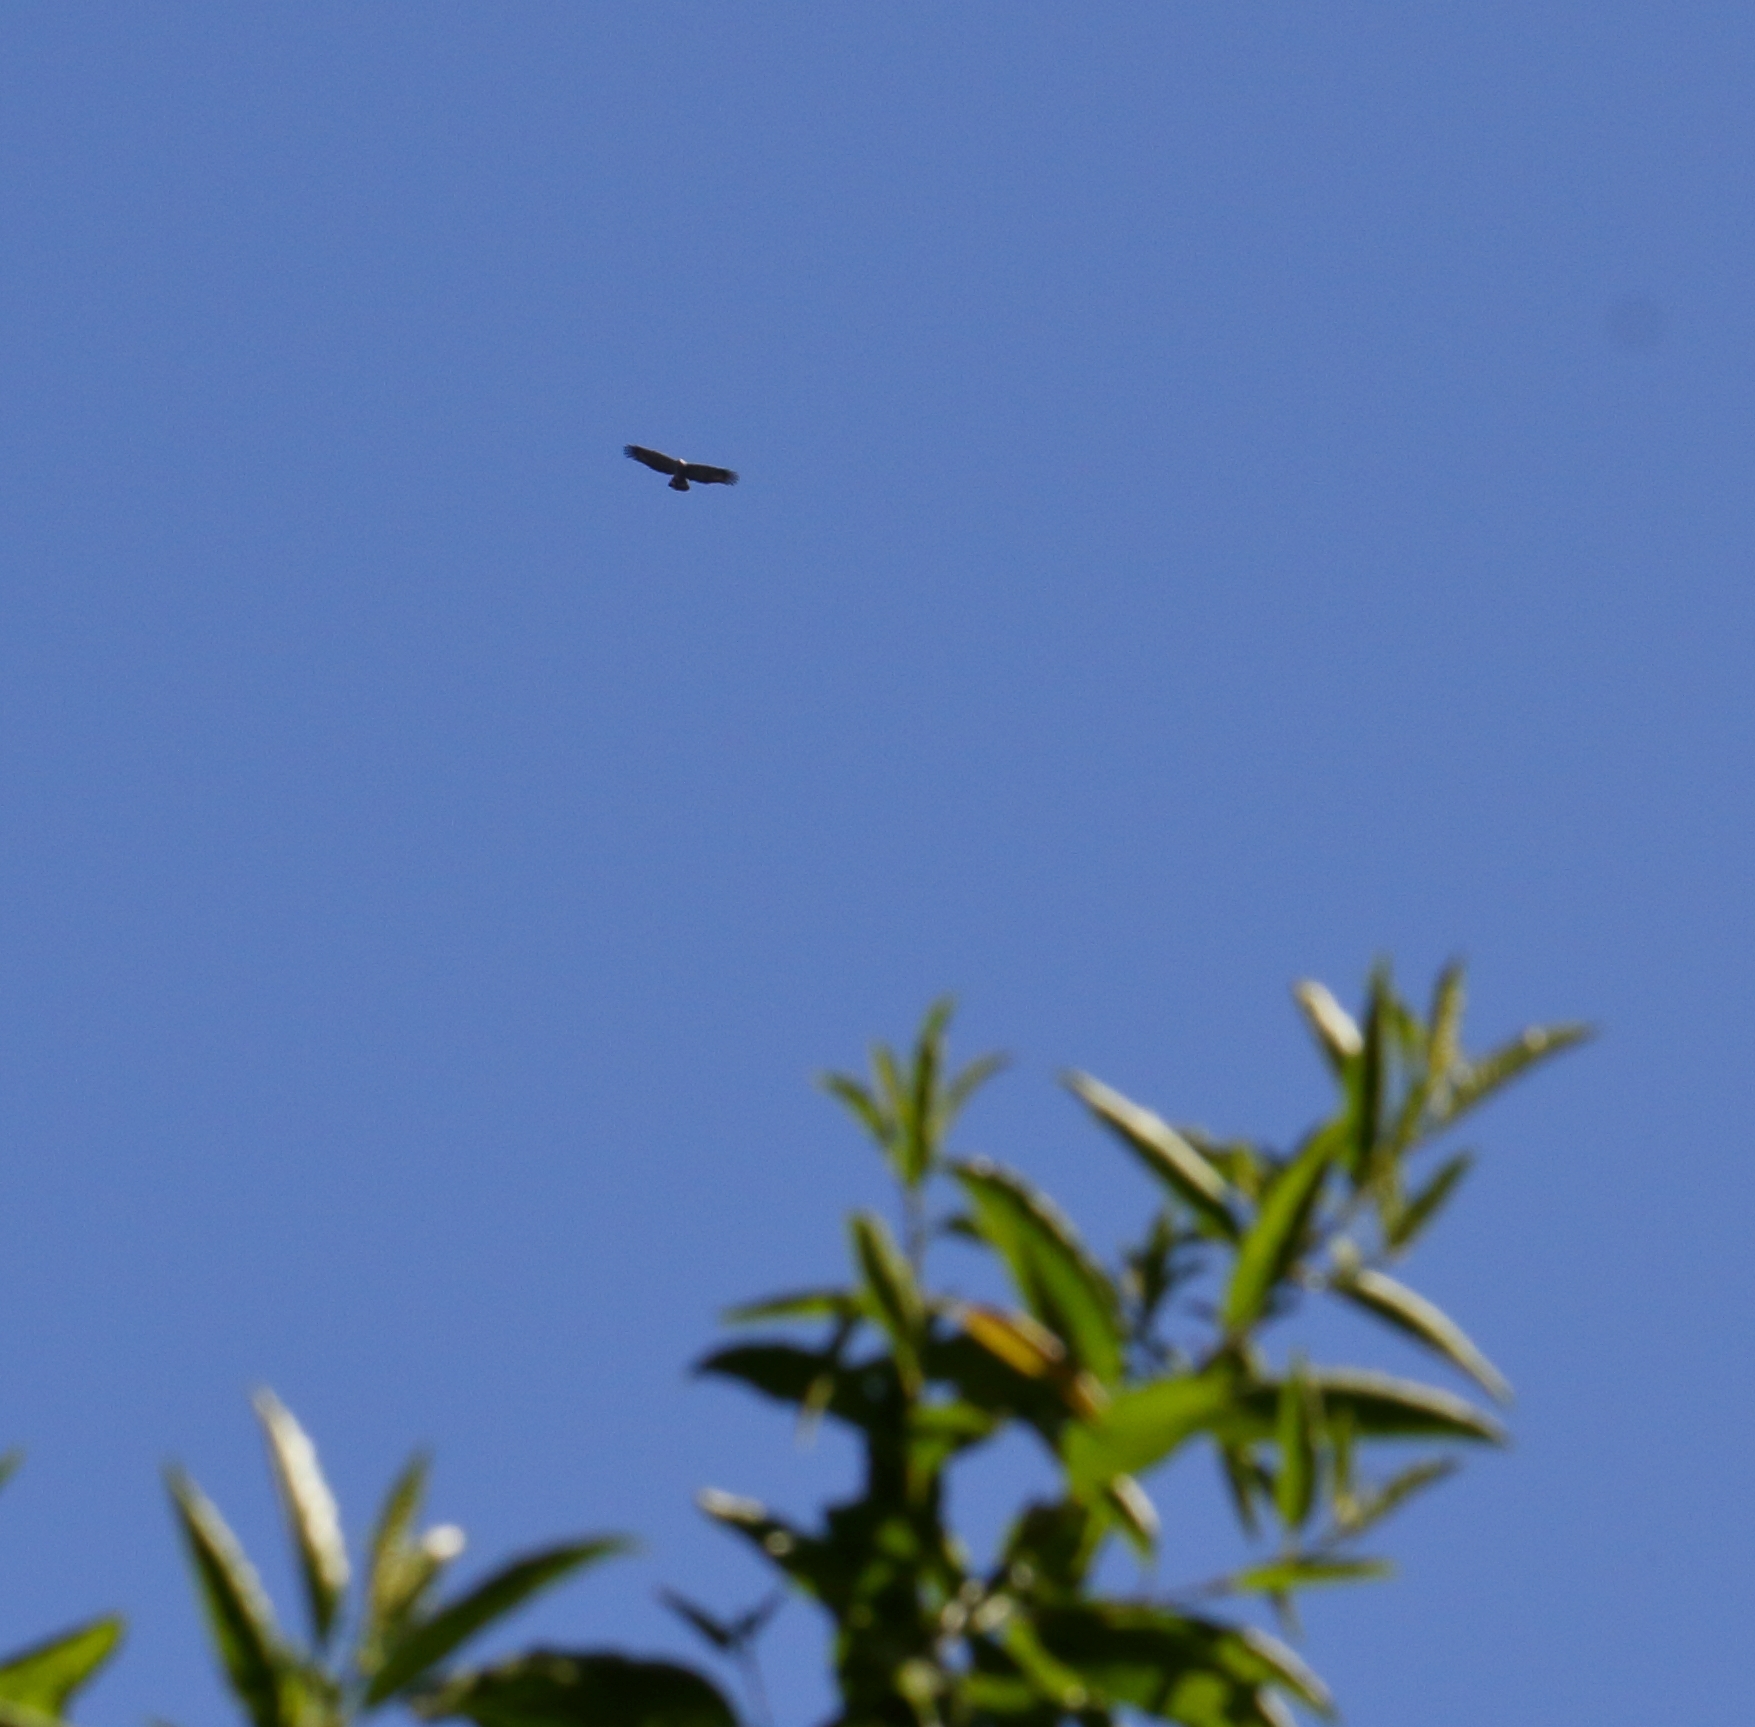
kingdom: Animalia
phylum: Chordata
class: Aves
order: Accipitriformes
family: Accipitridae
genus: Polyboroides
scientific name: Polyboroides typus
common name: African harrier-hawk
